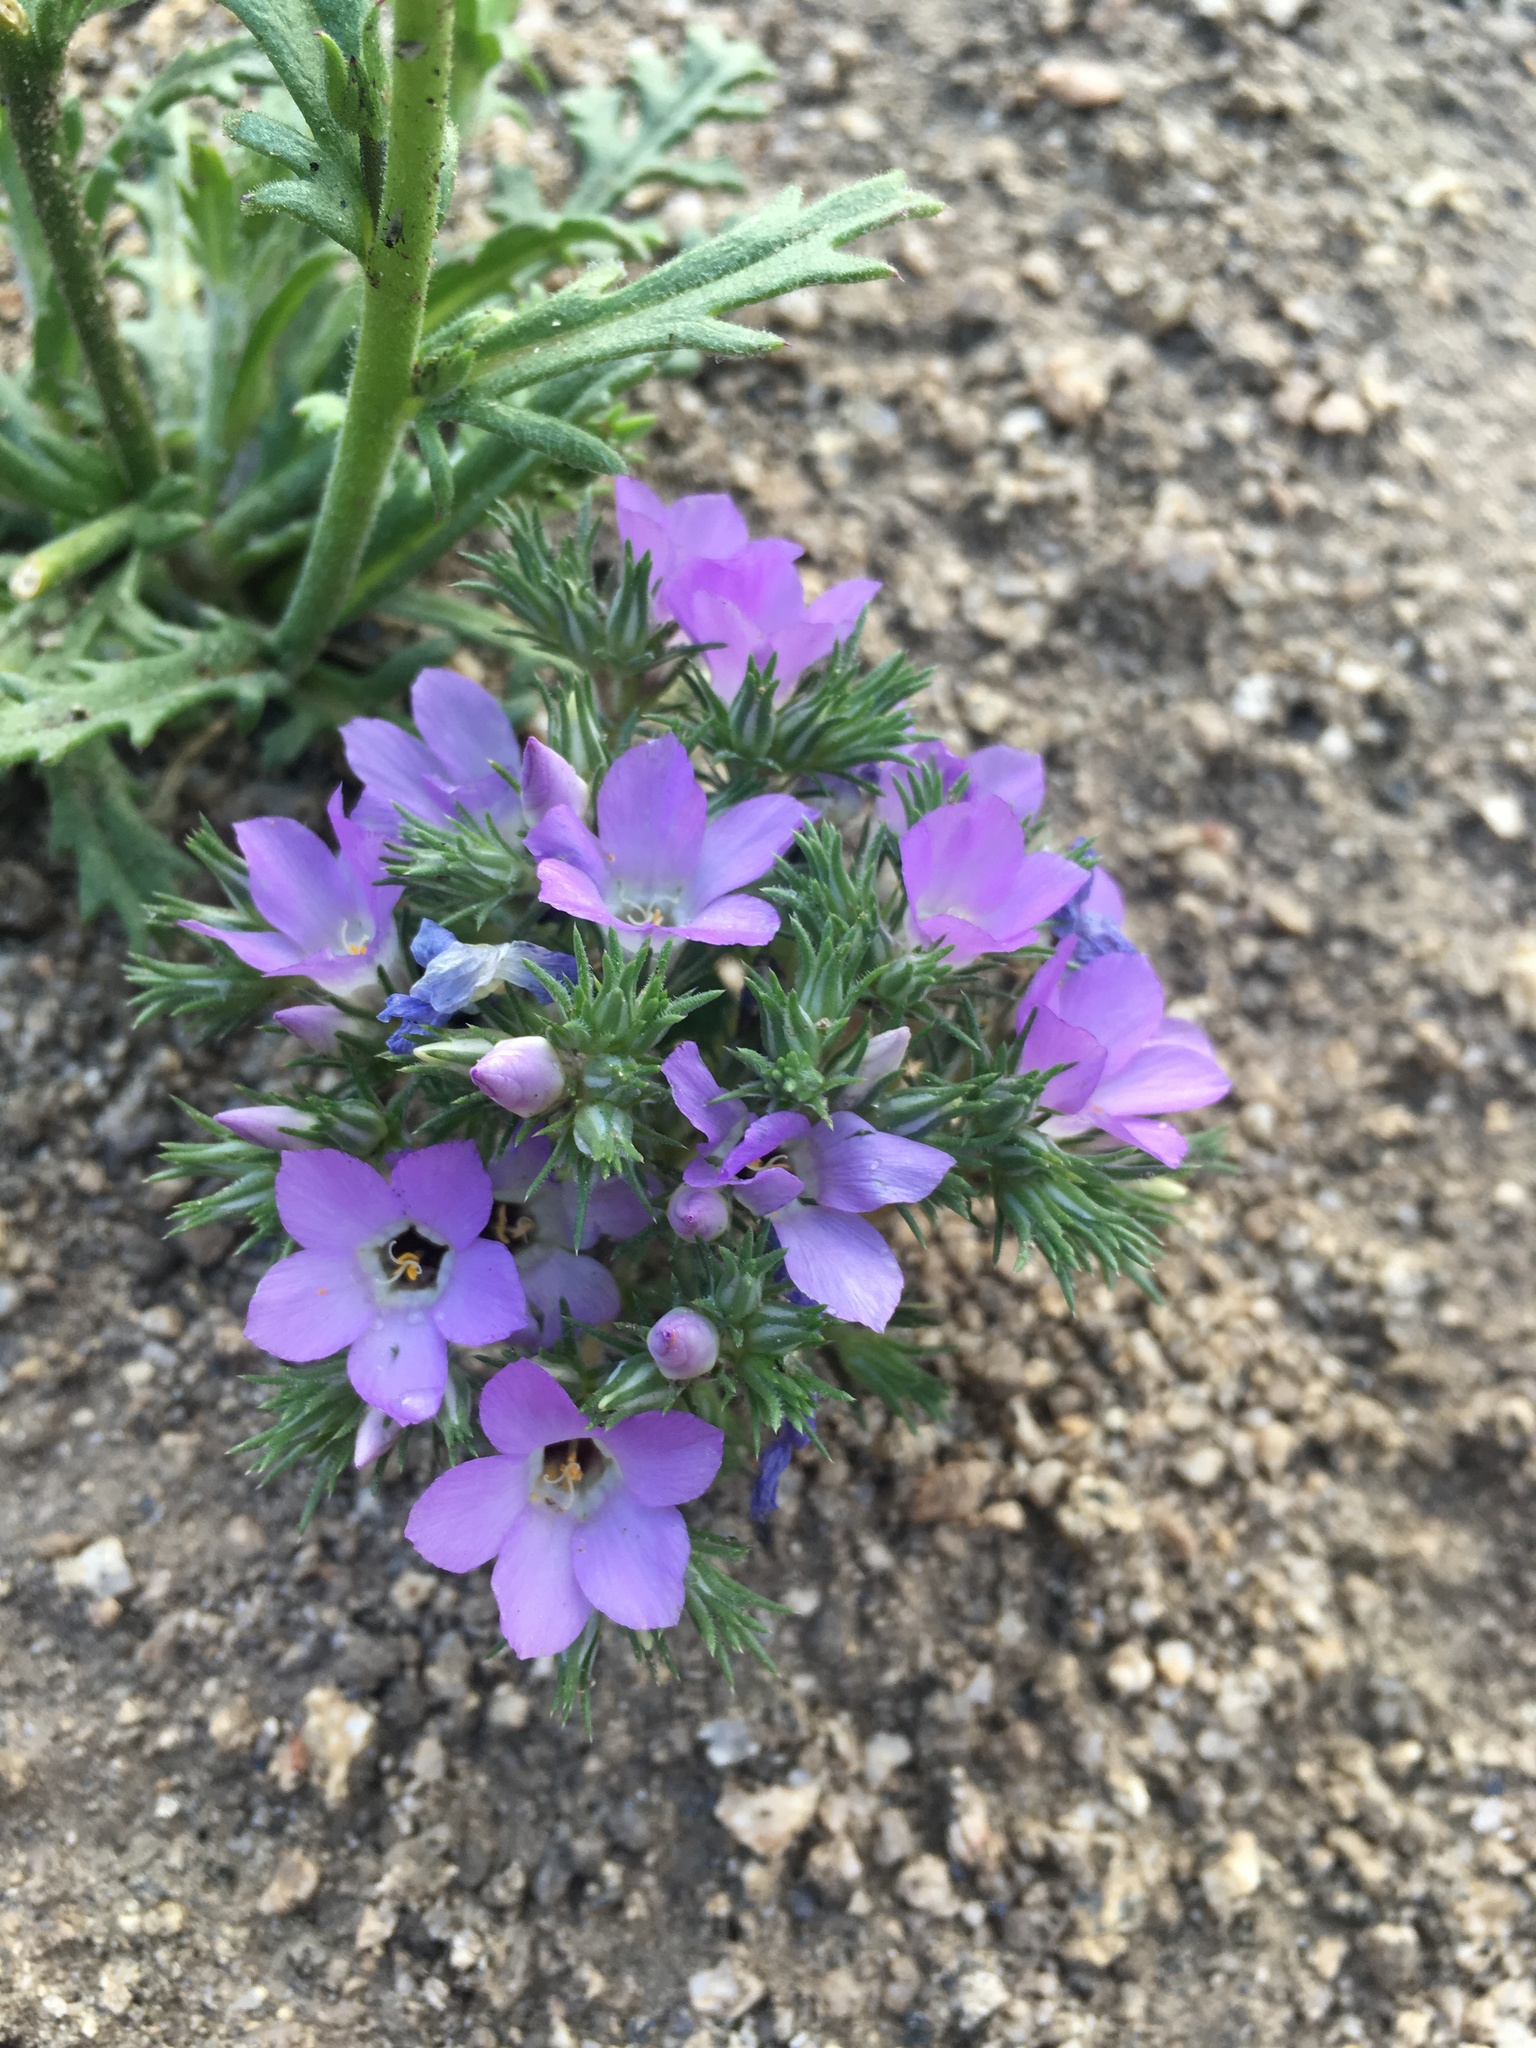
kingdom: Plantae
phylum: Tracheophyta
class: Magnoliopsida
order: Ericales
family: Polemoniaceae
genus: Linanthus
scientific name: Linanthus parryae
